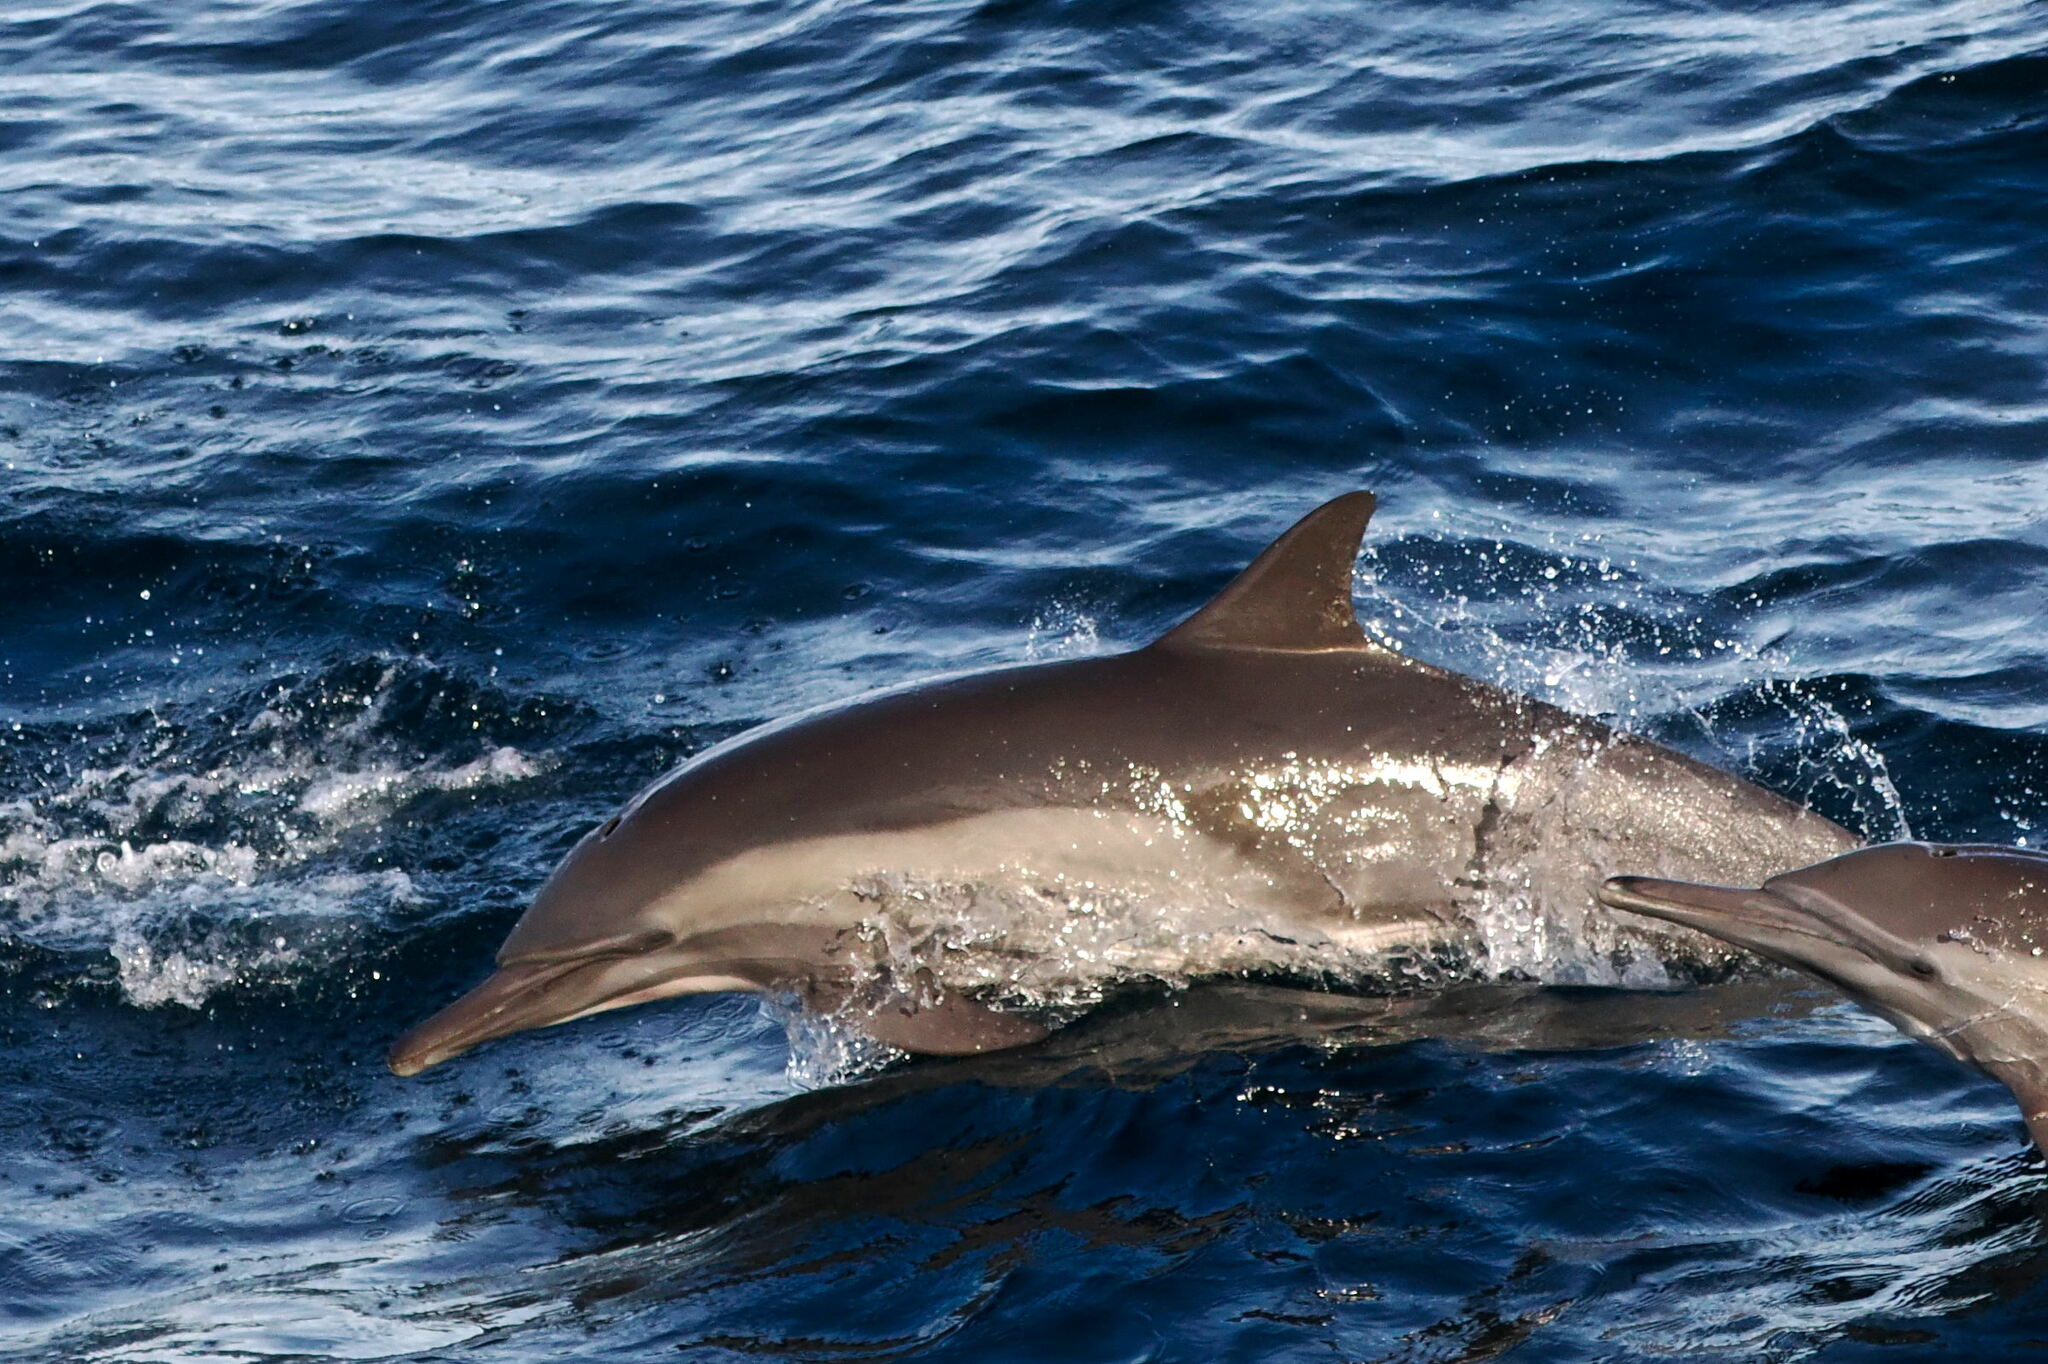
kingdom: Animalia
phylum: Chordata
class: Mammalia
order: Cetacea
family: Delphinidae
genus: Delphinus
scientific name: Delphinus delphis
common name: Common dolphin
